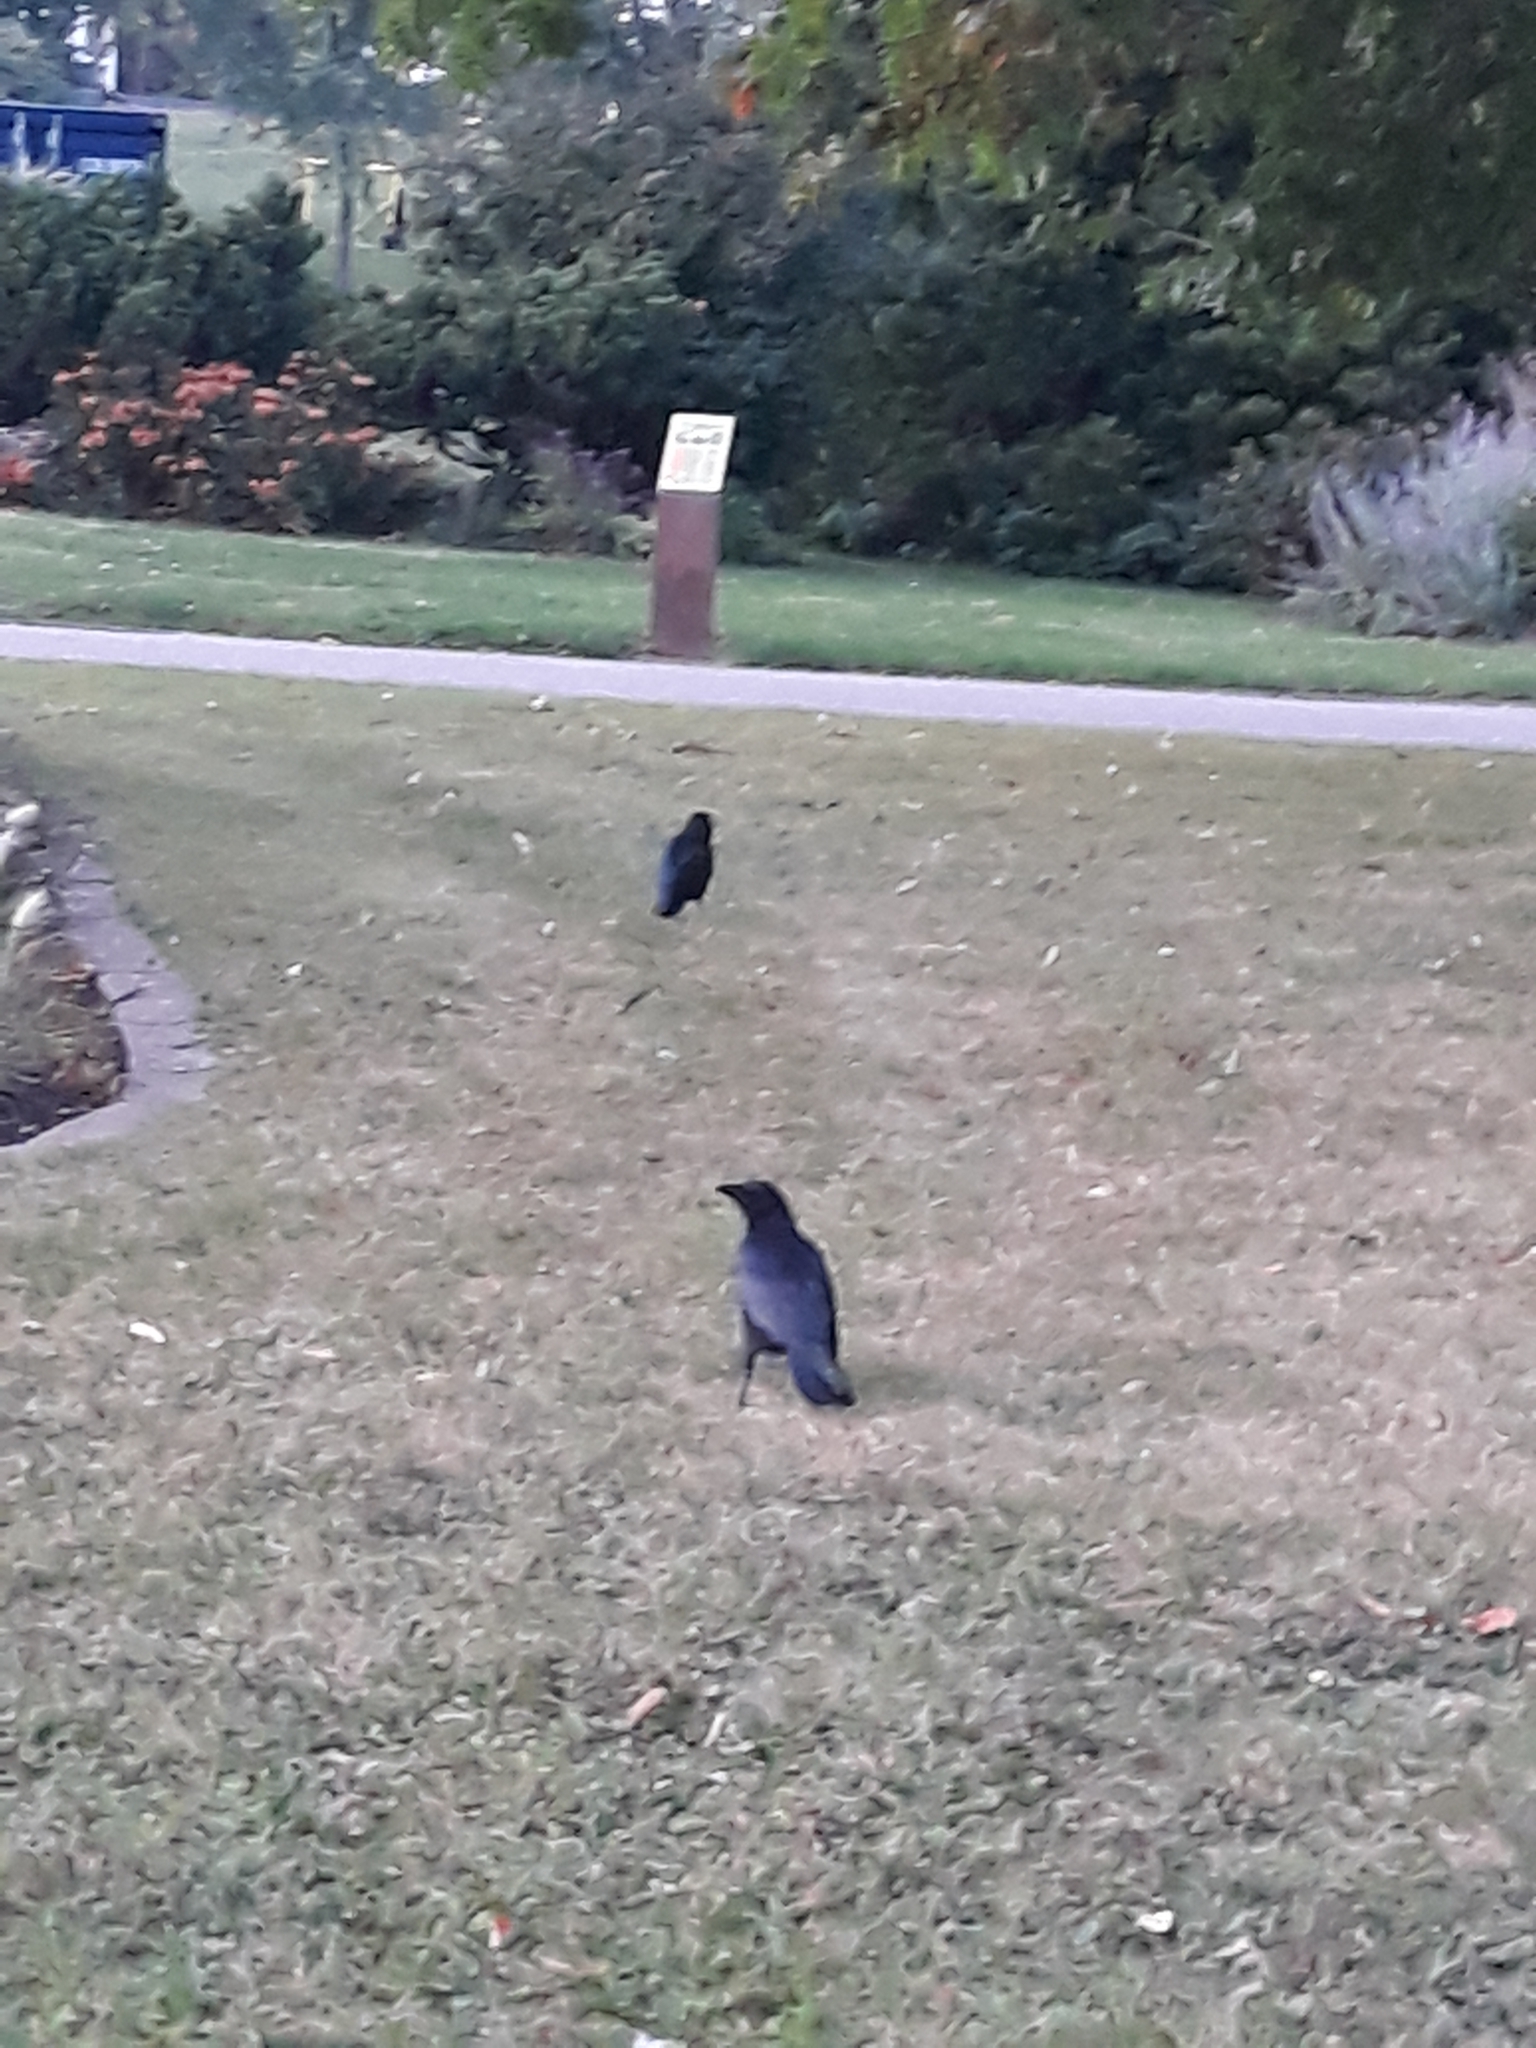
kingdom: Animalia
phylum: Chordata
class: Aves
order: Passeriformes
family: Corvidae
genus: Corvus
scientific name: Corvus corone
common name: Carrion crow
